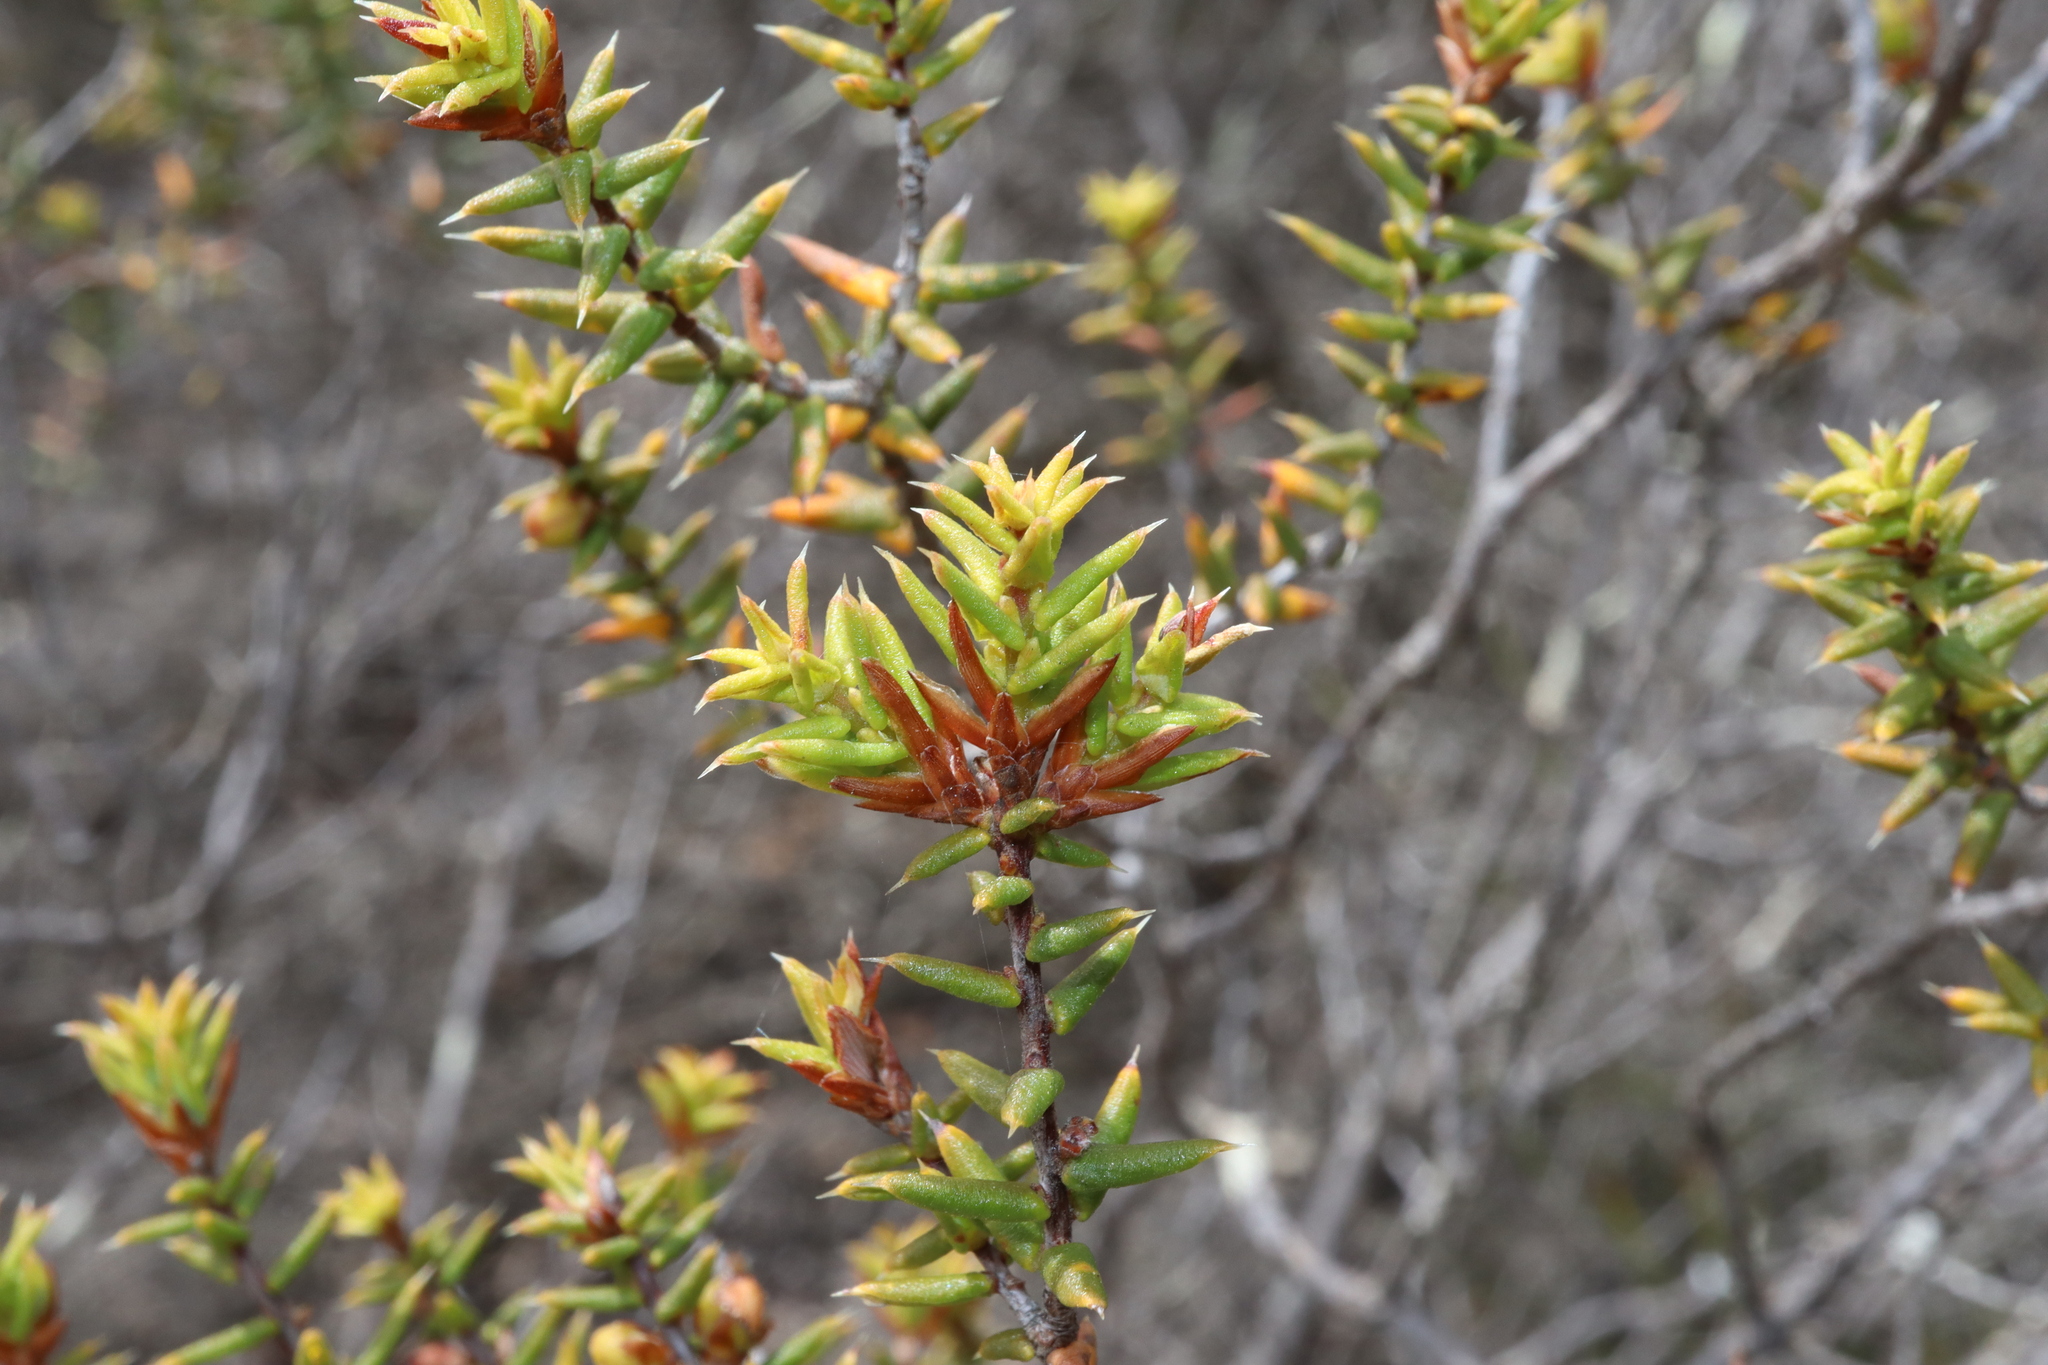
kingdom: Plantae
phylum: Tracheophyta
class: Magnoliopsida
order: Ericales
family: Ericaceae
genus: Styphelia
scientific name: Styphelia intertexta
